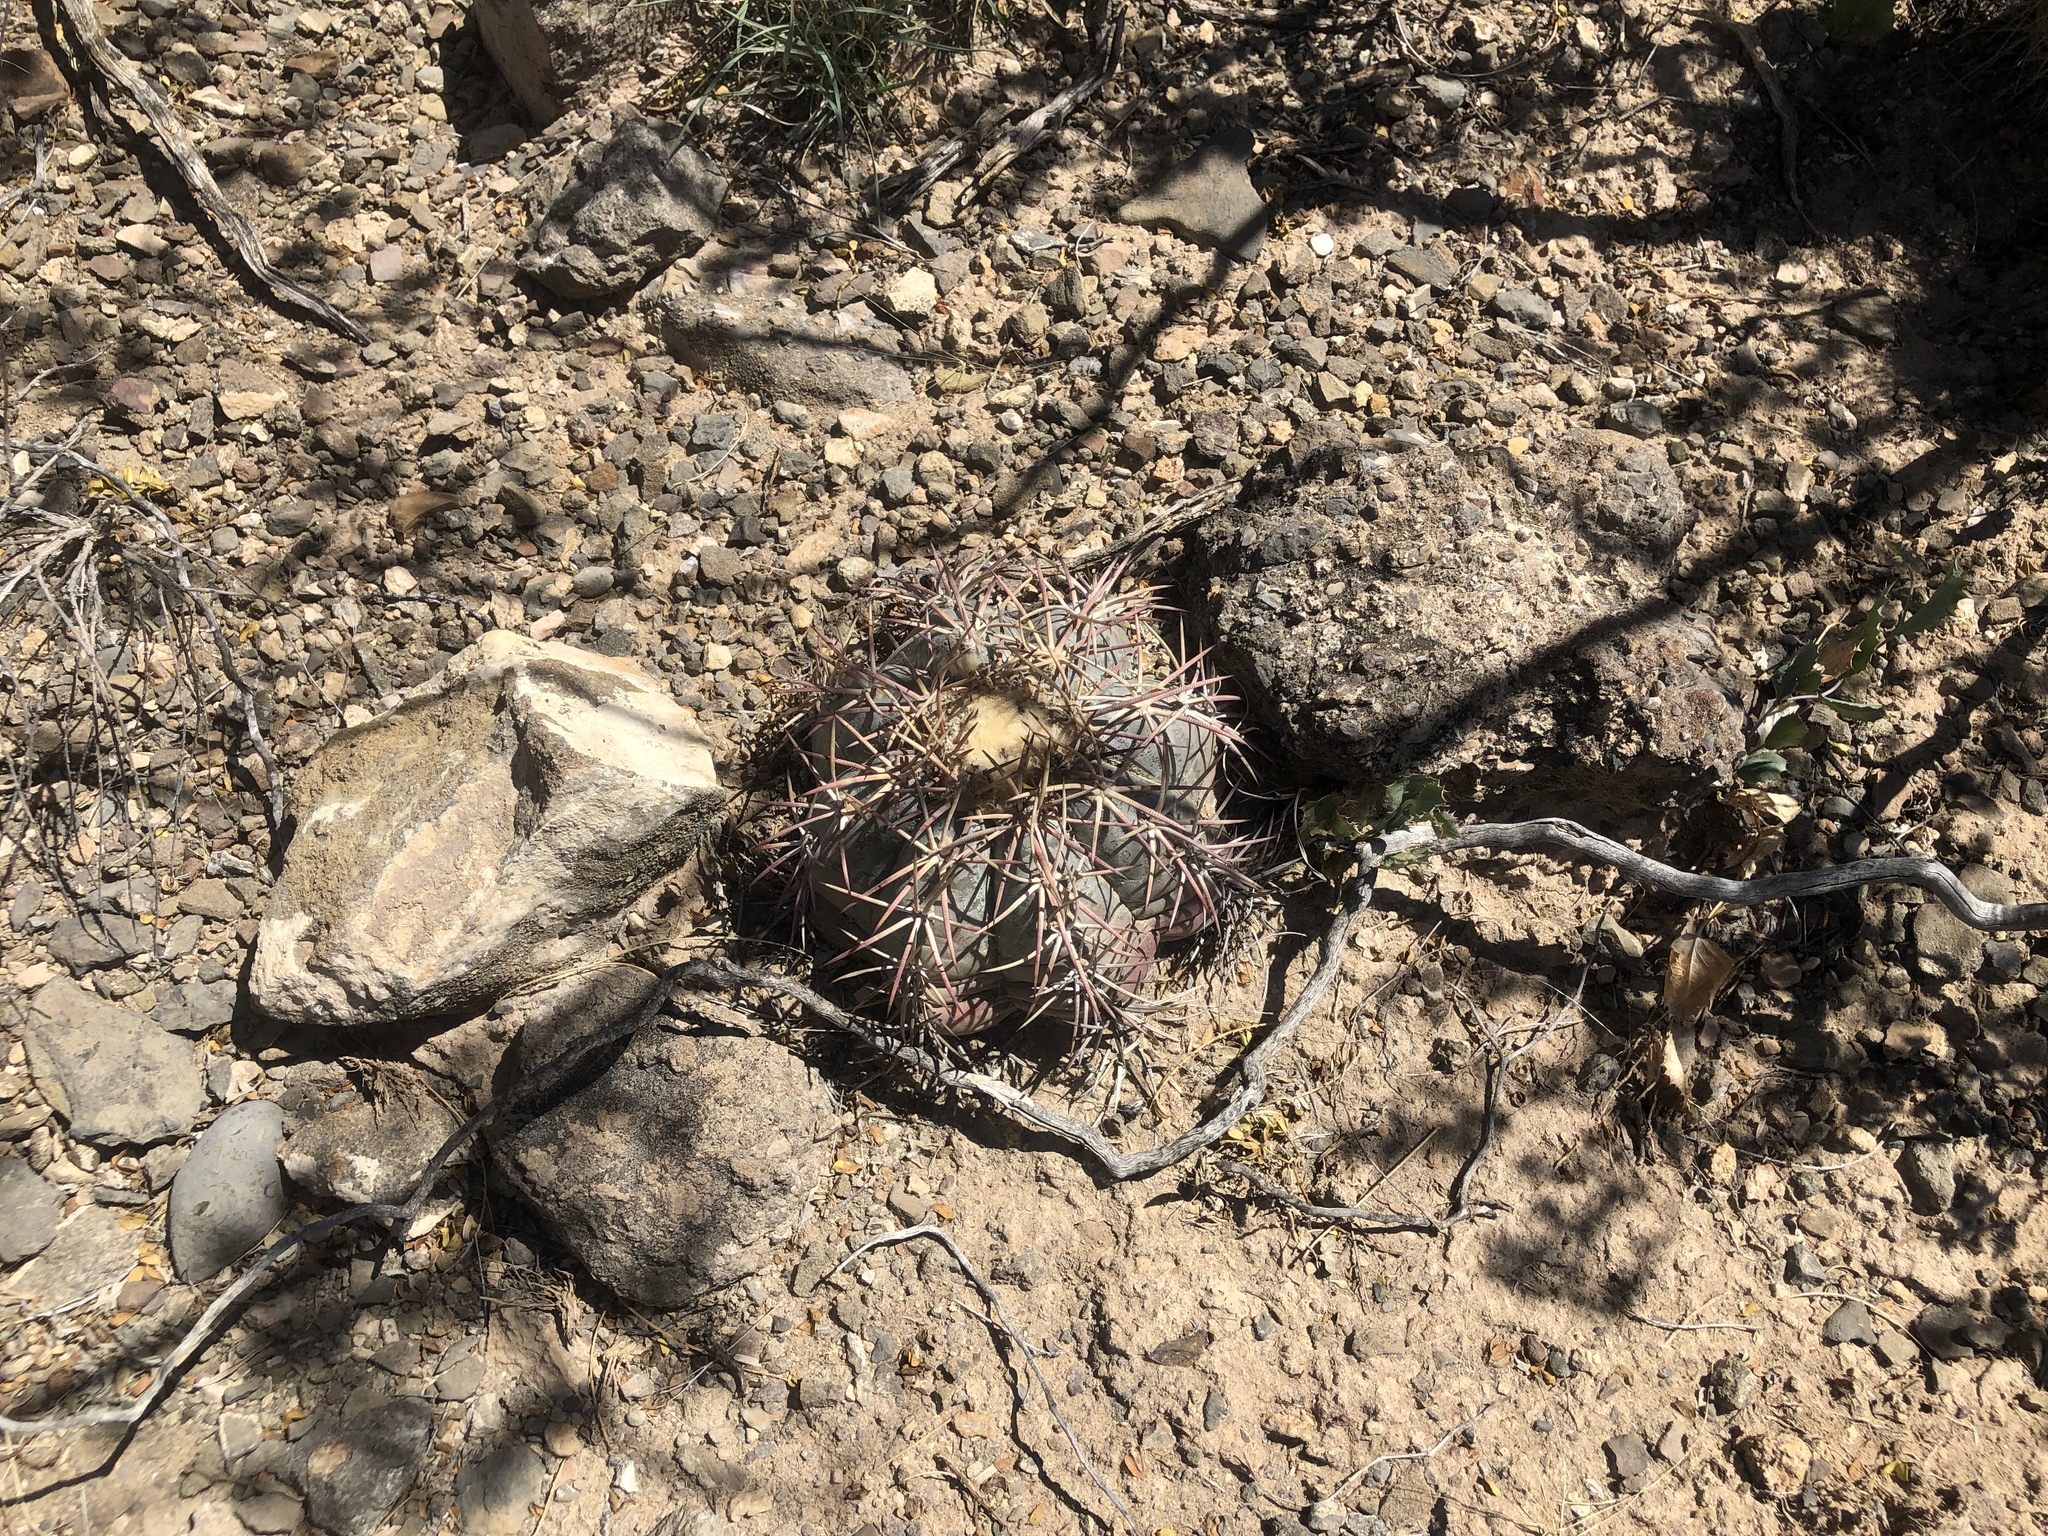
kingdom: Plantae
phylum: Tracheophyta
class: Magnoliopsida
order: Caryophyllales
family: Cactaceae
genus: Echinocactus
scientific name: Echinocactus horizonthalonius
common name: Devilshead
